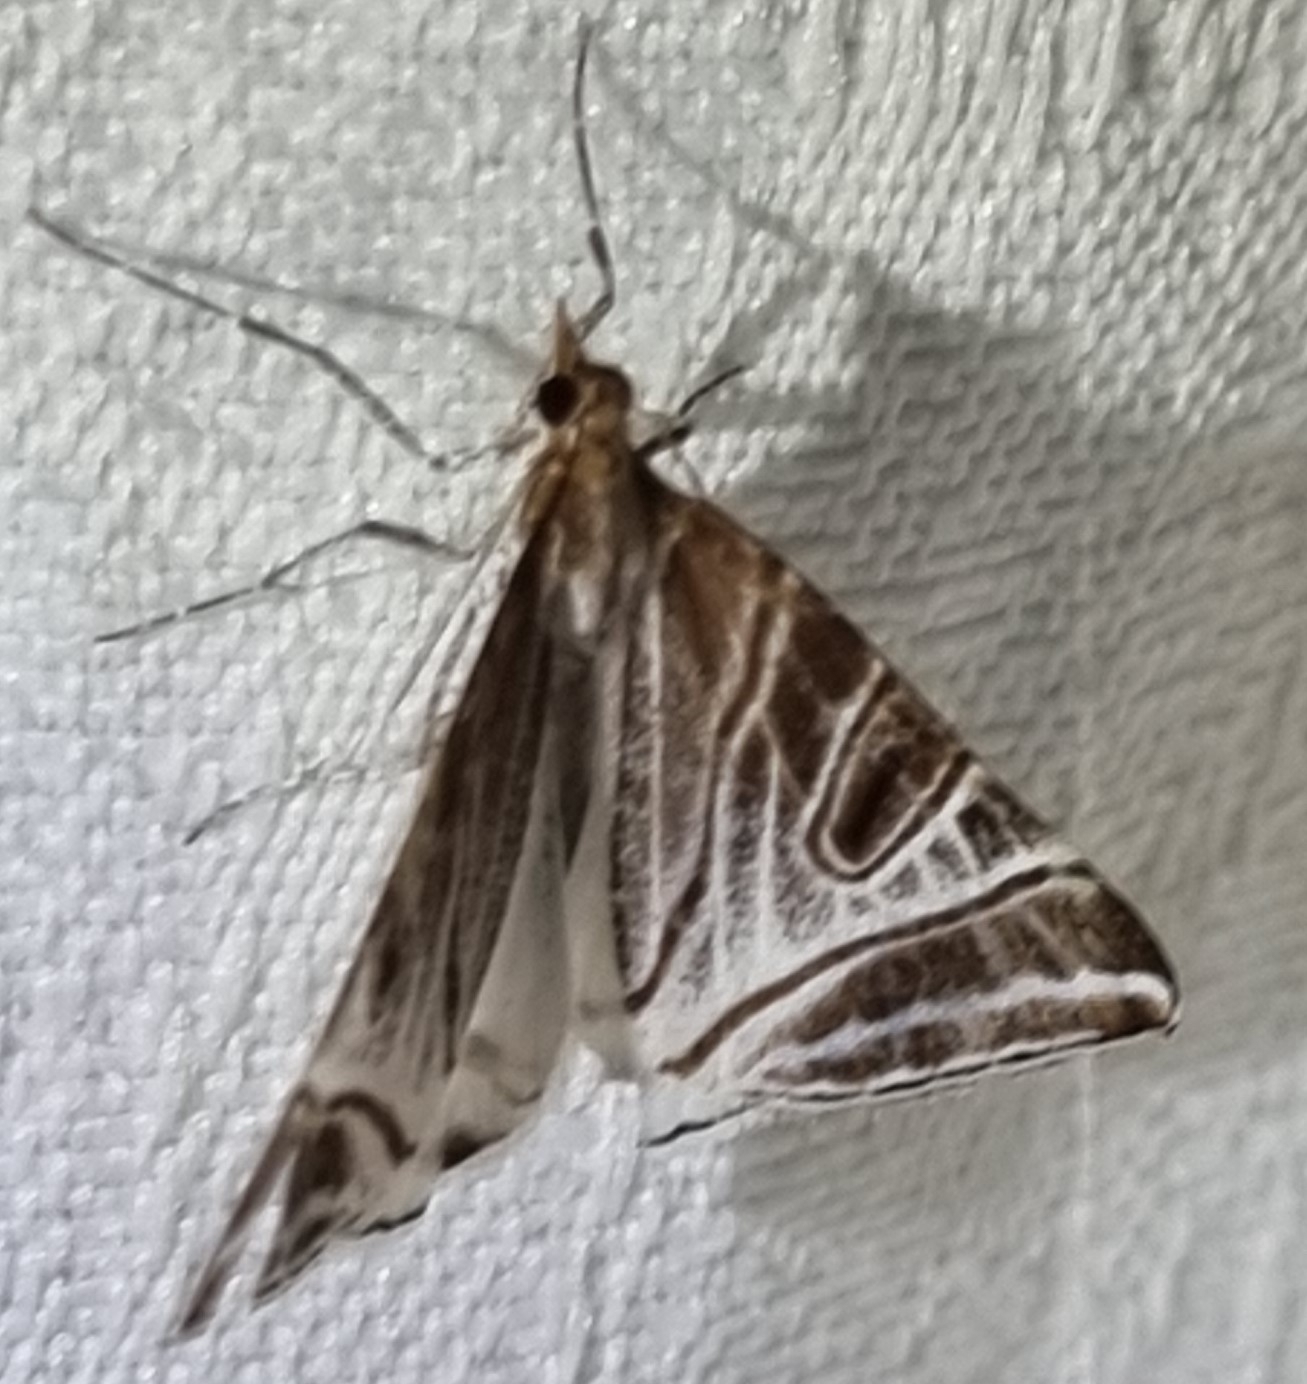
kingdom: Animalia
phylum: Arthropoda
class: Insecta
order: Lepidoptera
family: Geometridae
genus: Phrataria
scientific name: Phrataria replicataria
